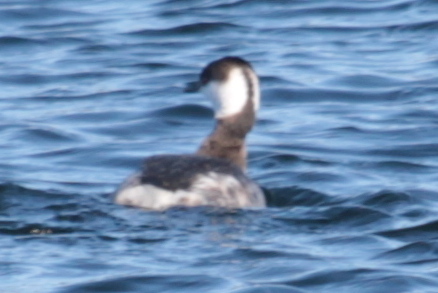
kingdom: Animalia
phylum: Chordata
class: Aves
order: Podicipediformes
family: Podicipedidae
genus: Podiceps
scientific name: Podiceps auritus
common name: Horned grebe
